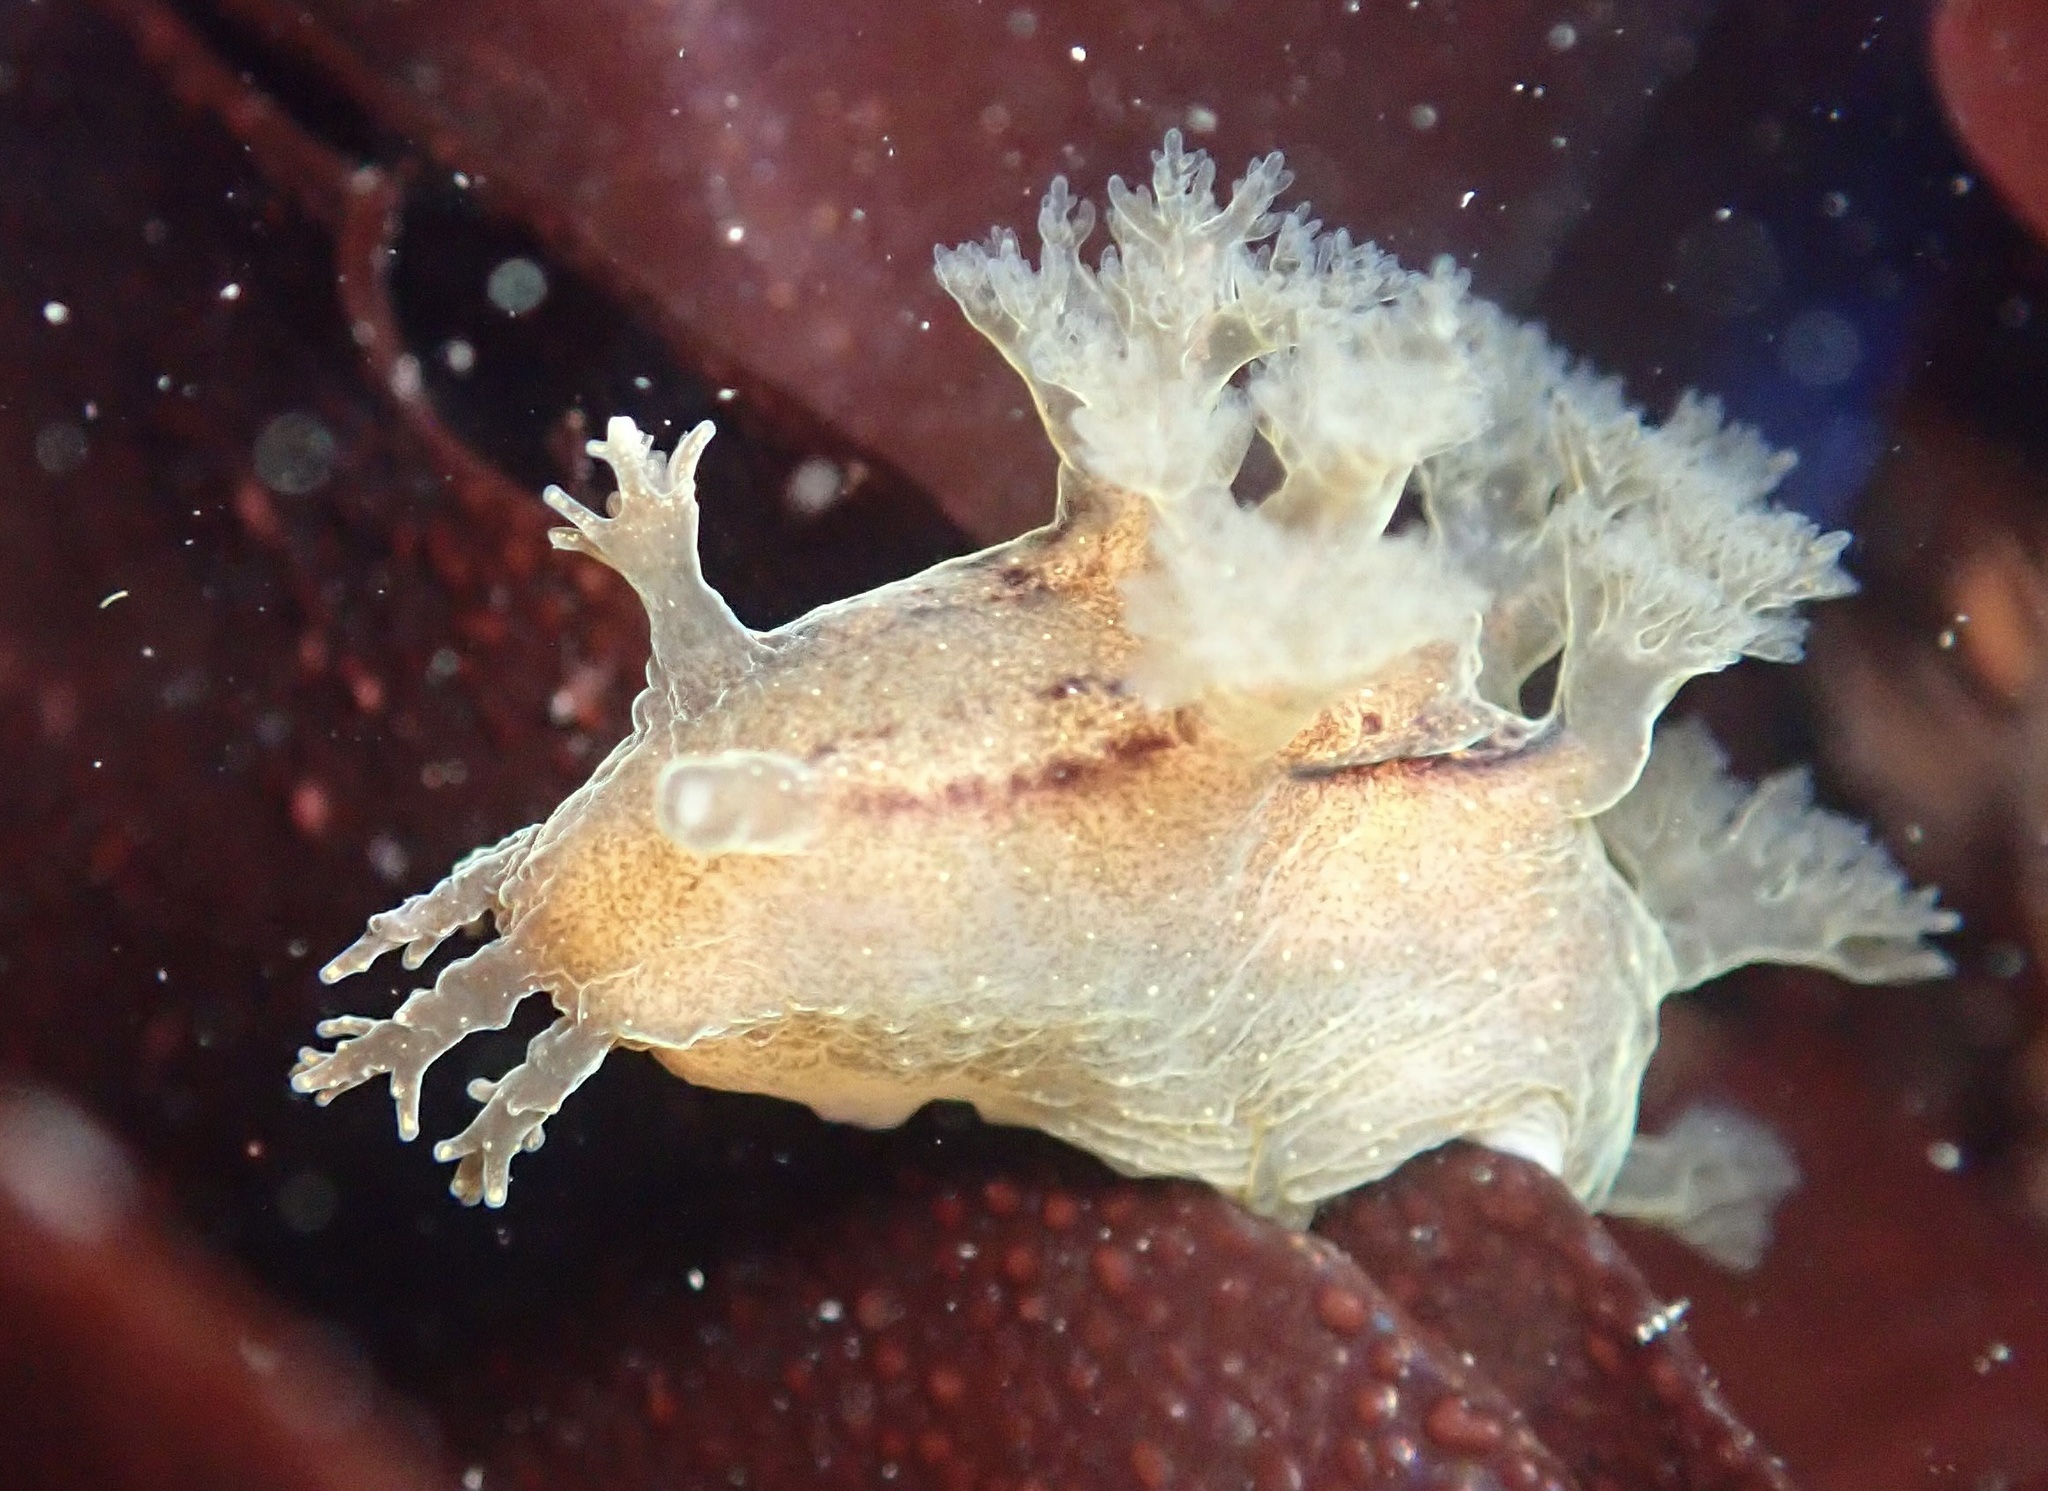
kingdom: Animalia
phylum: Mollusca
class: Gastropoda
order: Nudibranchia
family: Dendronotidae
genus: Dendronotus
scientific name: Dendronotus subramosus
